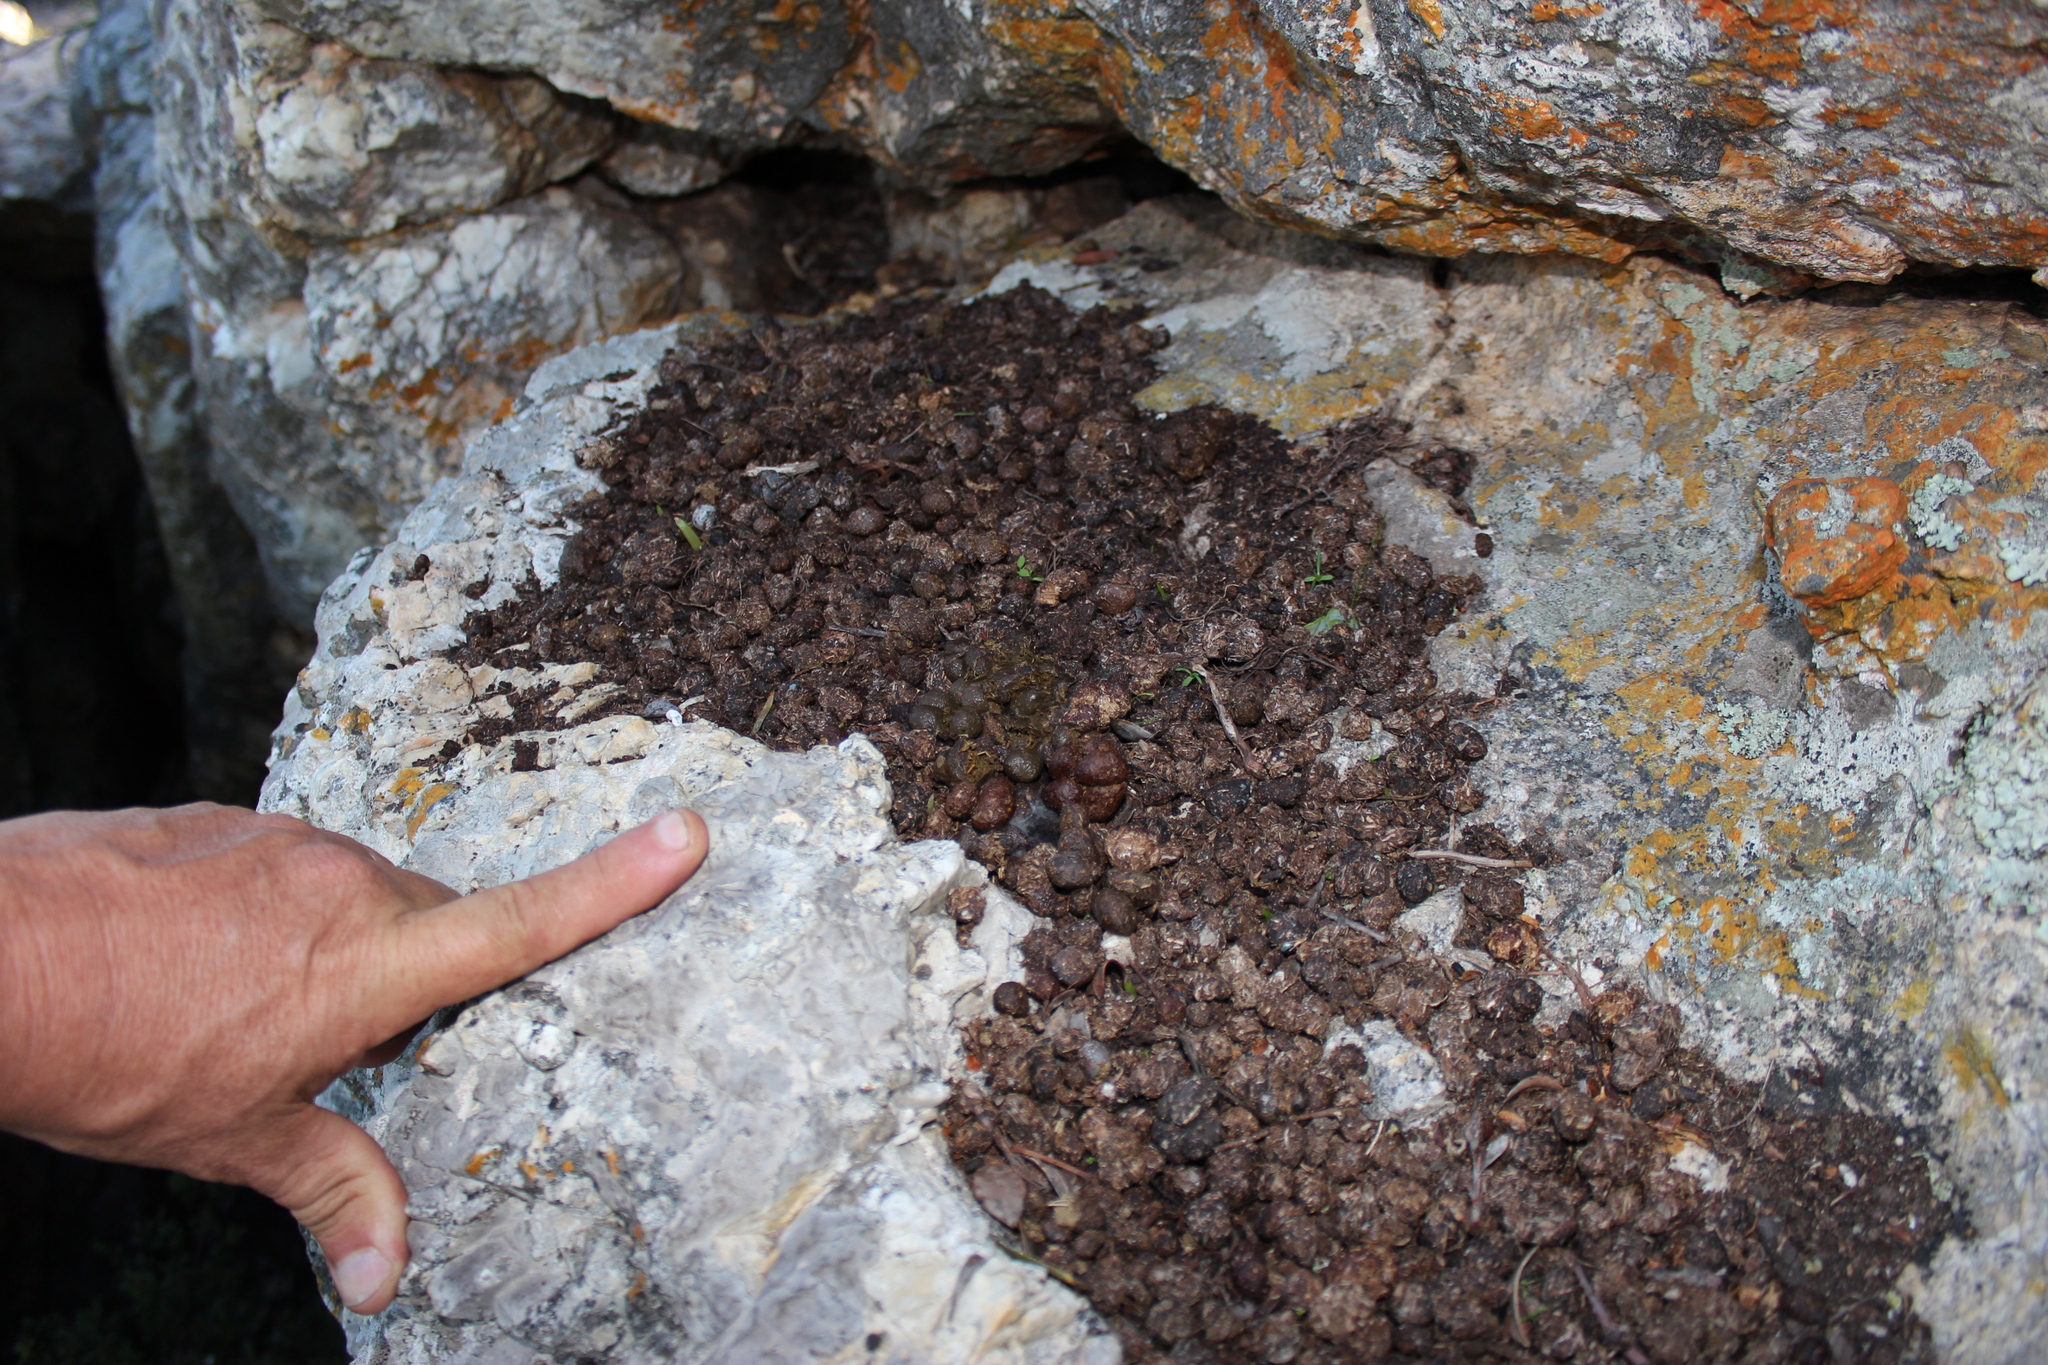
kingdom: Animalia
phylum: Chordata
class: Mammalia
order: Hyracoidea
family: Procaviidae
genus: Procavia
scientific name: Procavia capensis
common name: Rock hyrax
